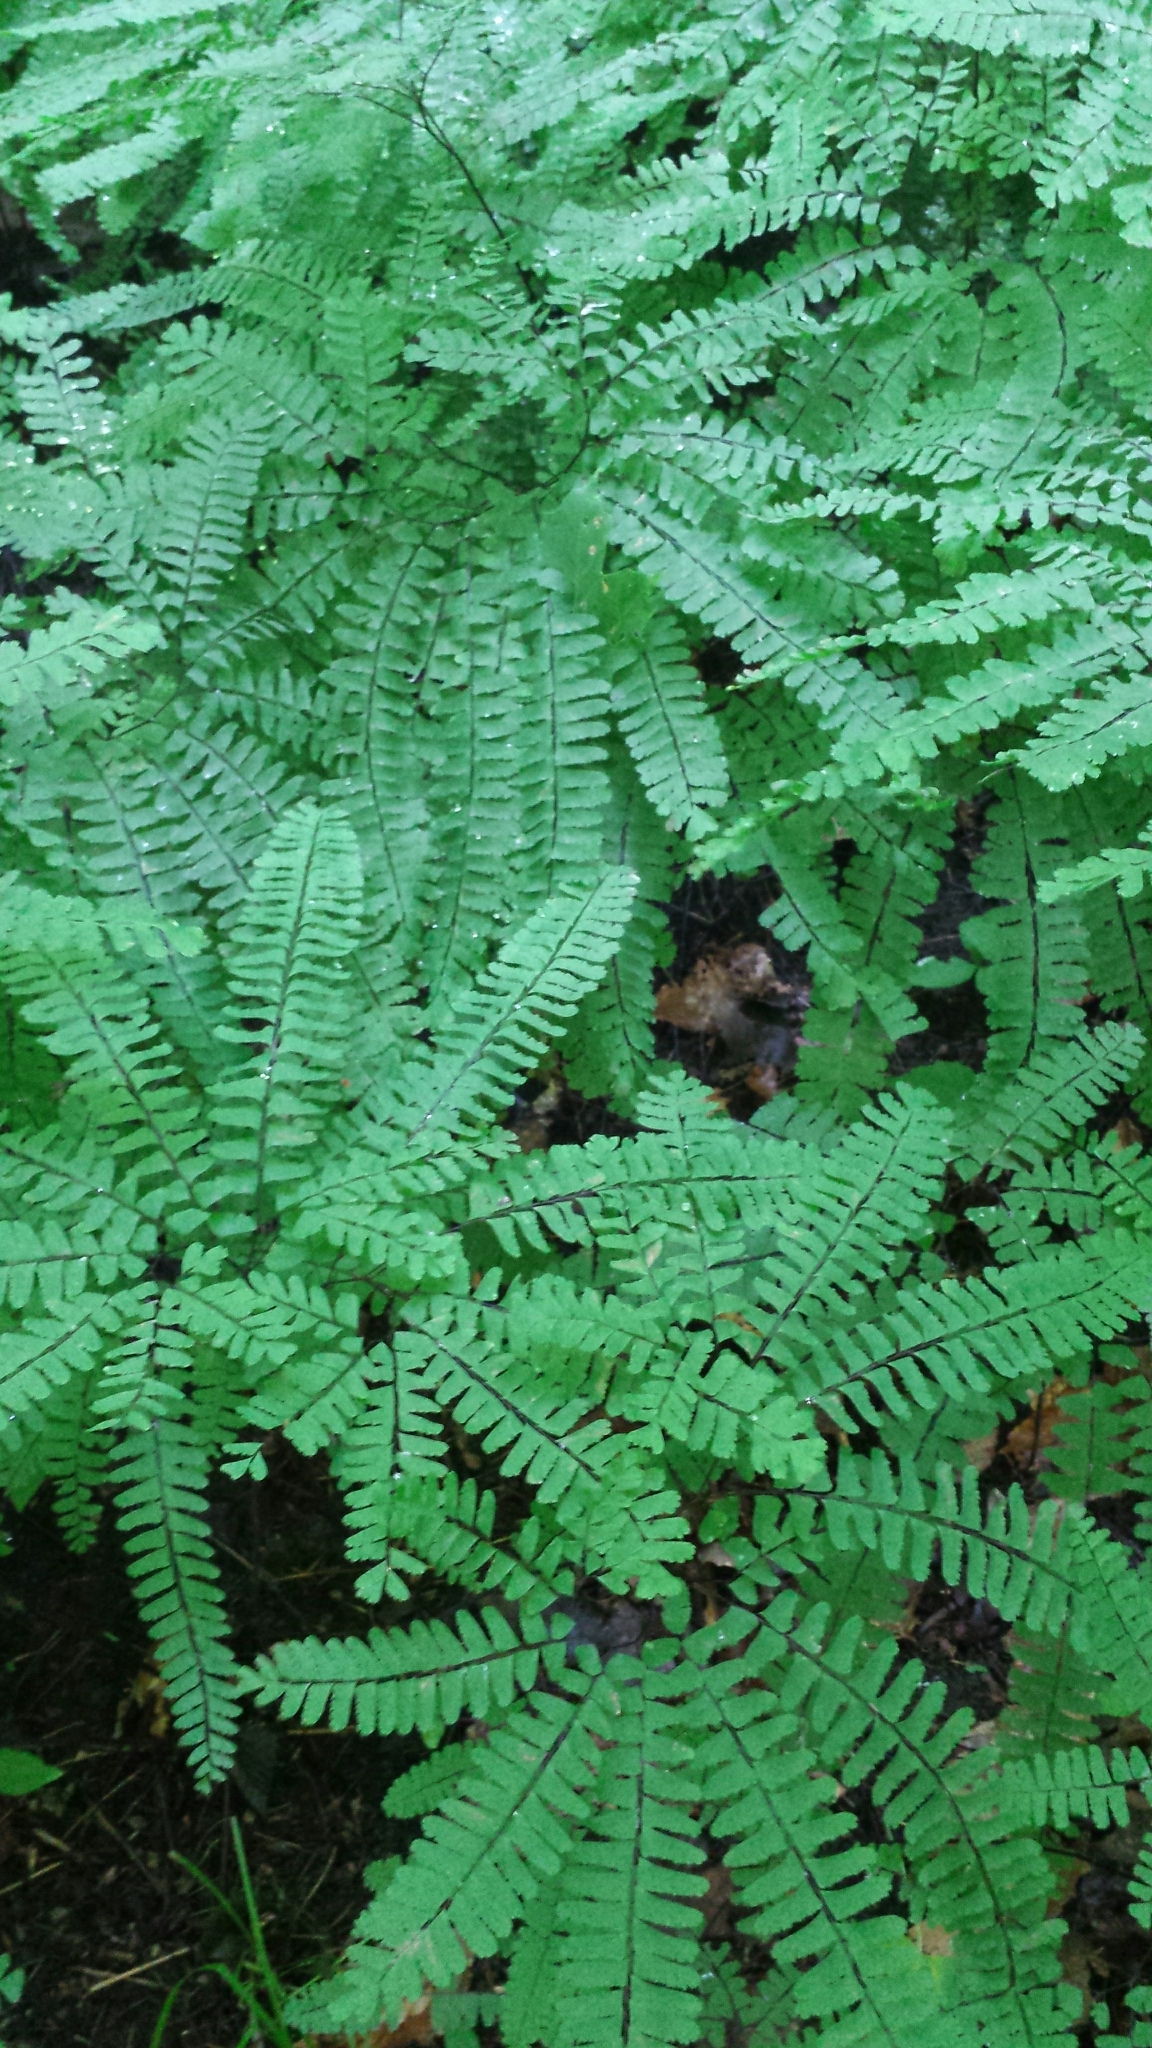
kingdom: Plantae
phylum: Tracheophyta
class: Polypodiopsida
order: Polypodiales
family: Pteridaceae
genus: Adiantum
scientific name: Adiantum pedatum
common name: Five-finger fern
